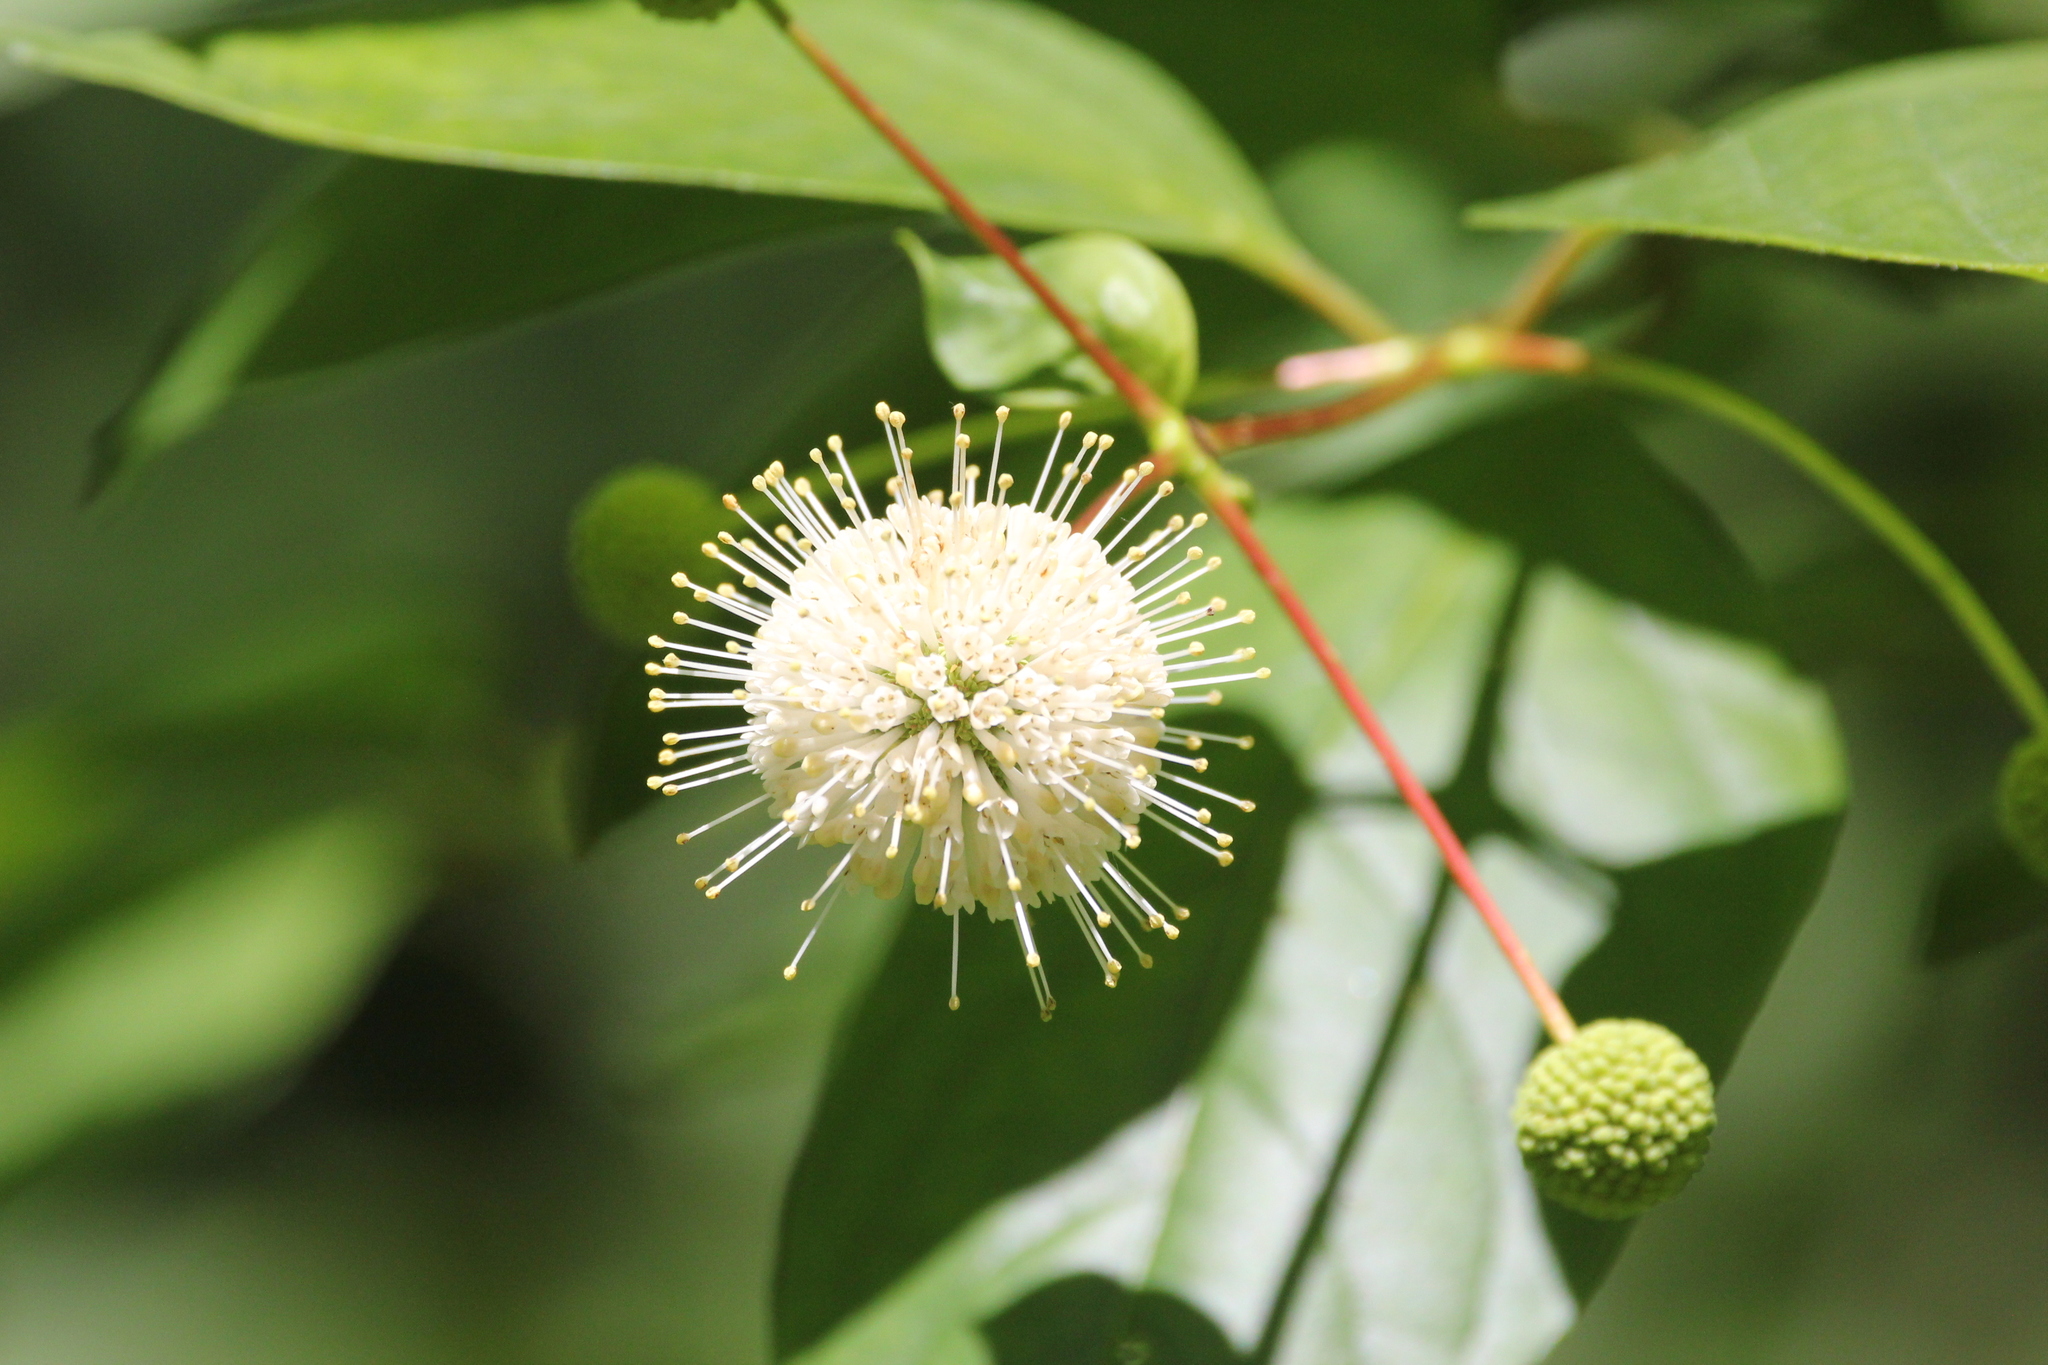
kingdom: Plantae
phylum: Tracheophyta
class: Magnoliopsida
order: Gentianales
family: Rubiaceae
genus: Cephalanthus
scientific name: Cephalanthus occidentalis
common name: Button-willow
